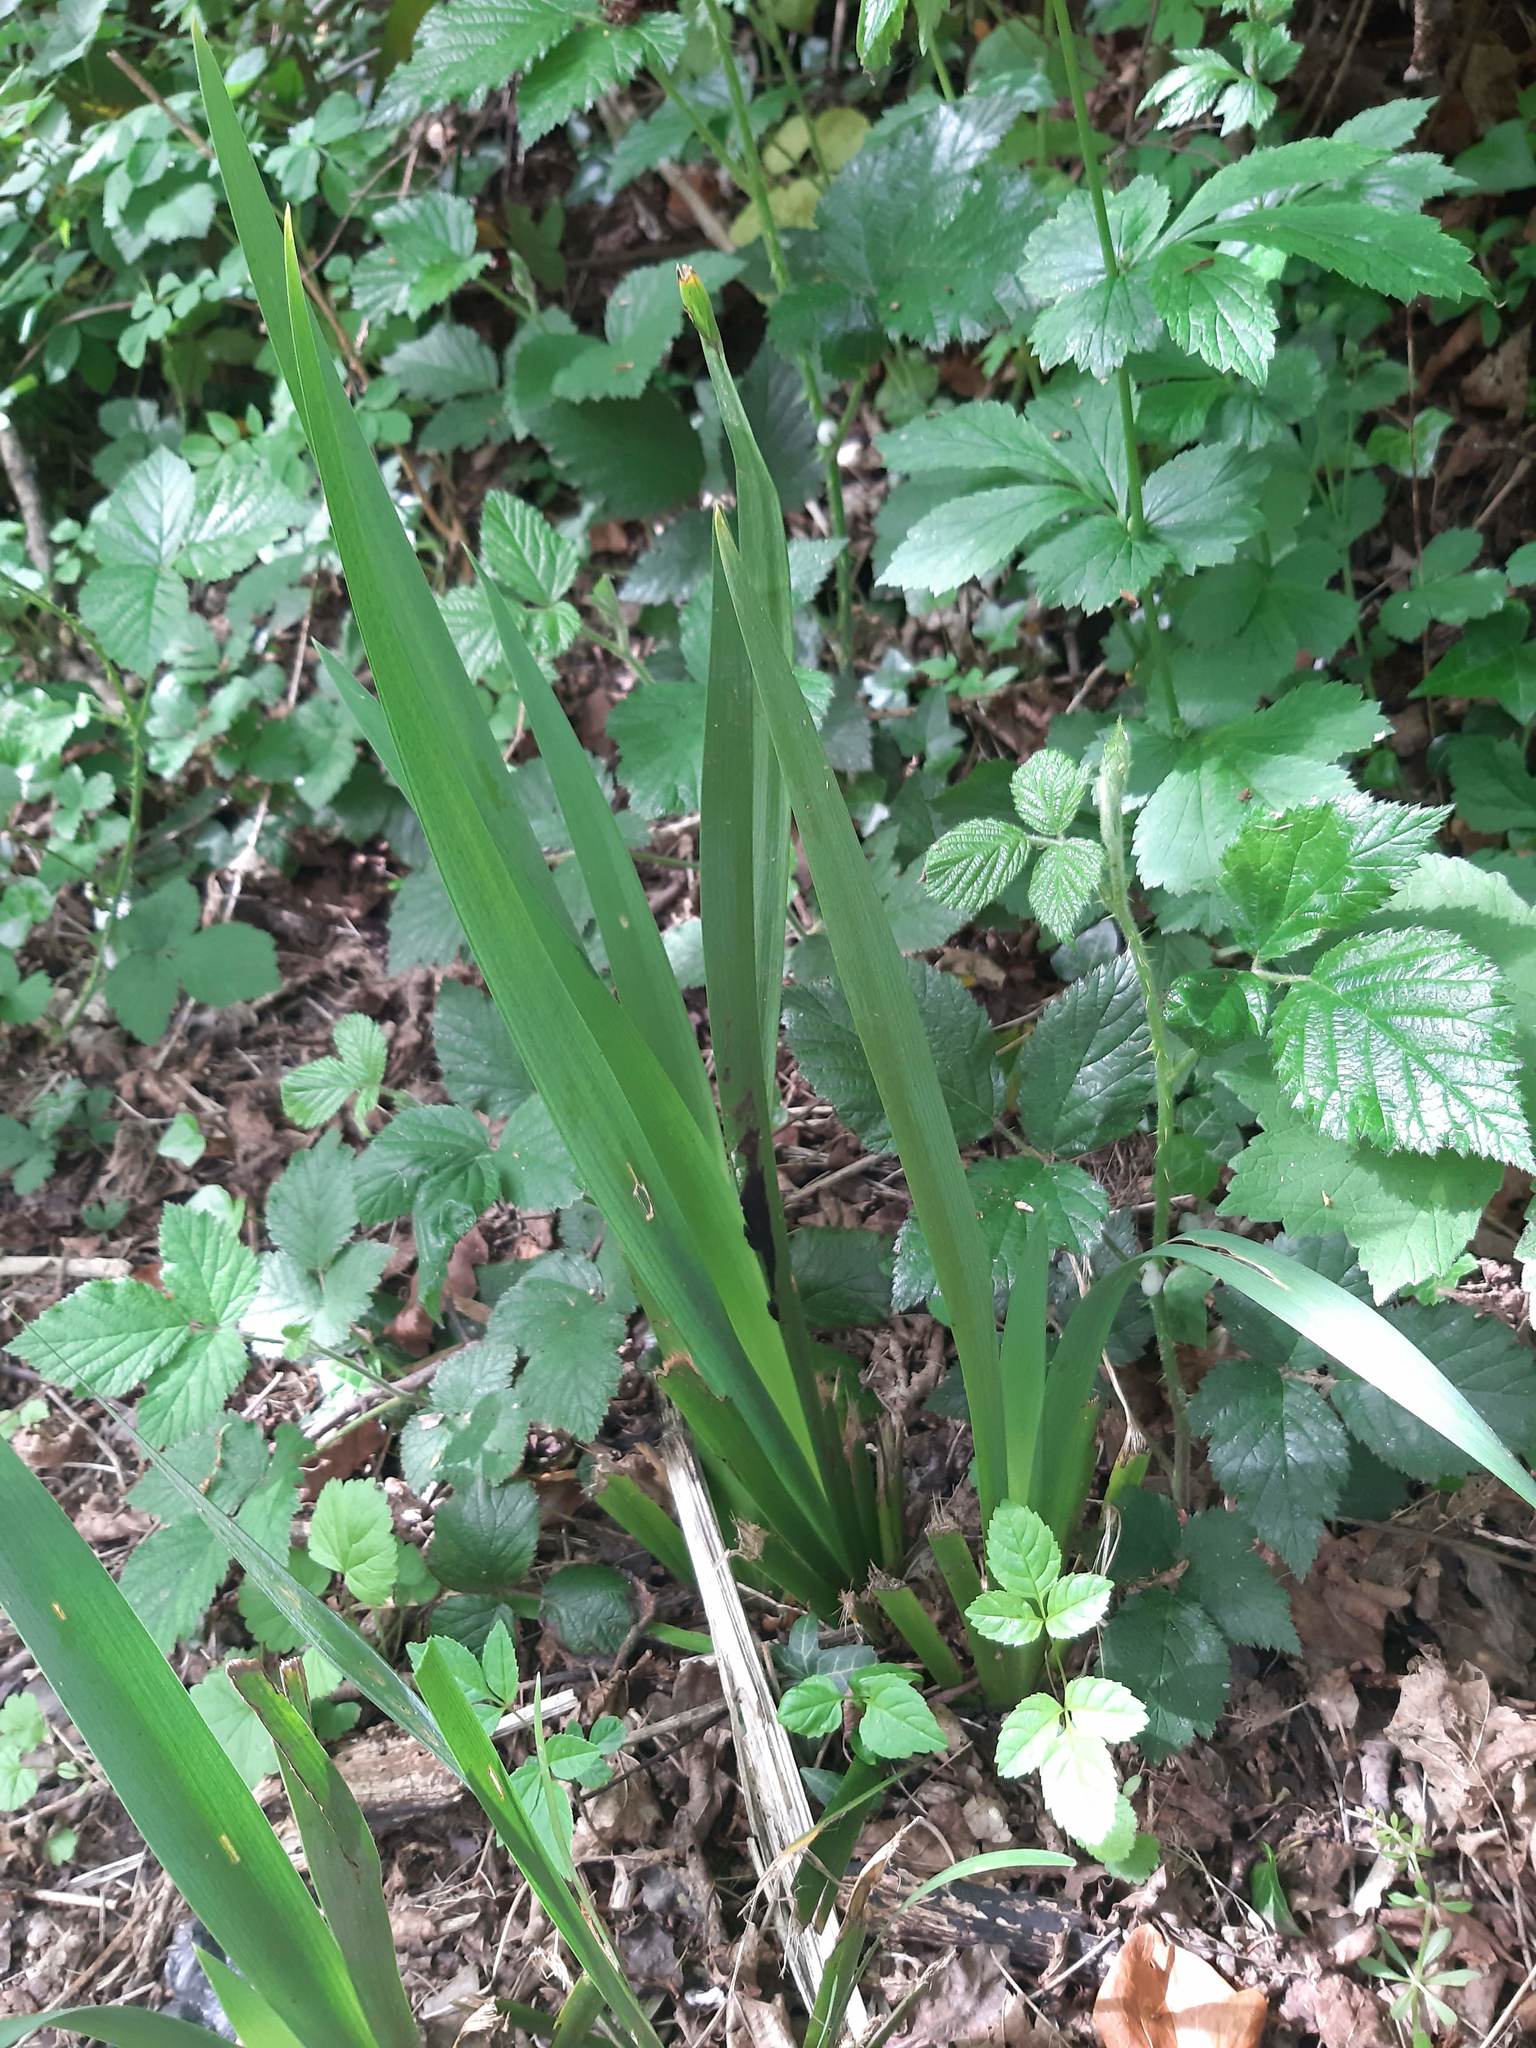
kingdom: Plantae
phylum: Tracheophyta
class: Liliopsida
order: Asparagales
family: Iridaceae
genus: Iris
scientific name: Iris foetidissima
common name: Stinking iris
